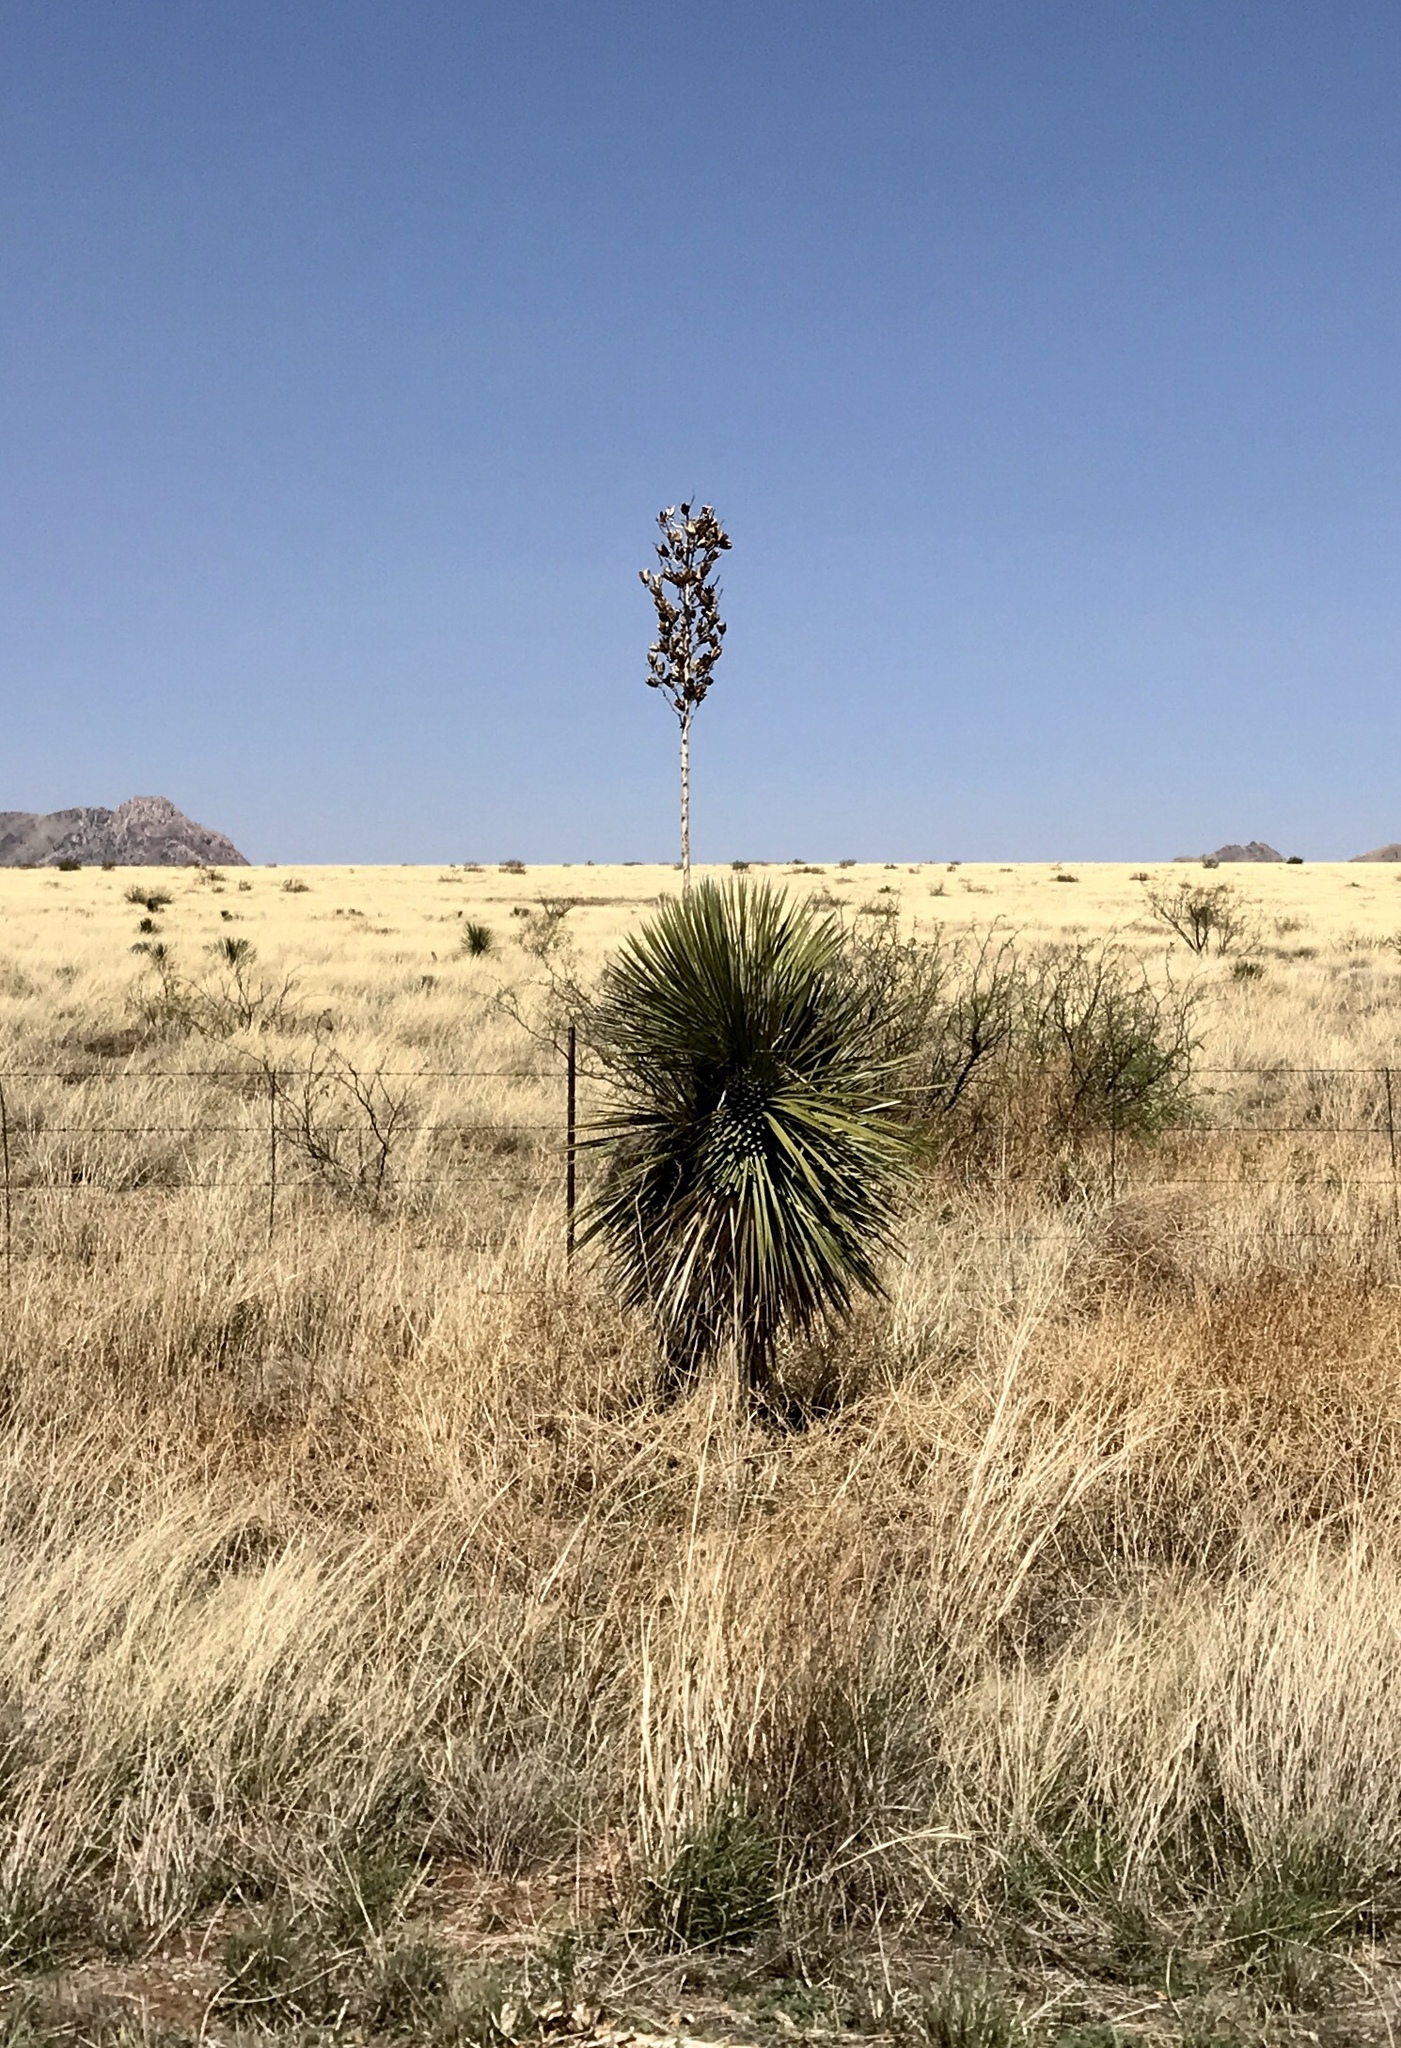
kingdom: Plantae
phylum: Tracheophyta
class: Liliopsida
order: Asparagales
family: Asparagaceae
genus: Yucca
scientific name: Yucca elata
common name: Palmella
